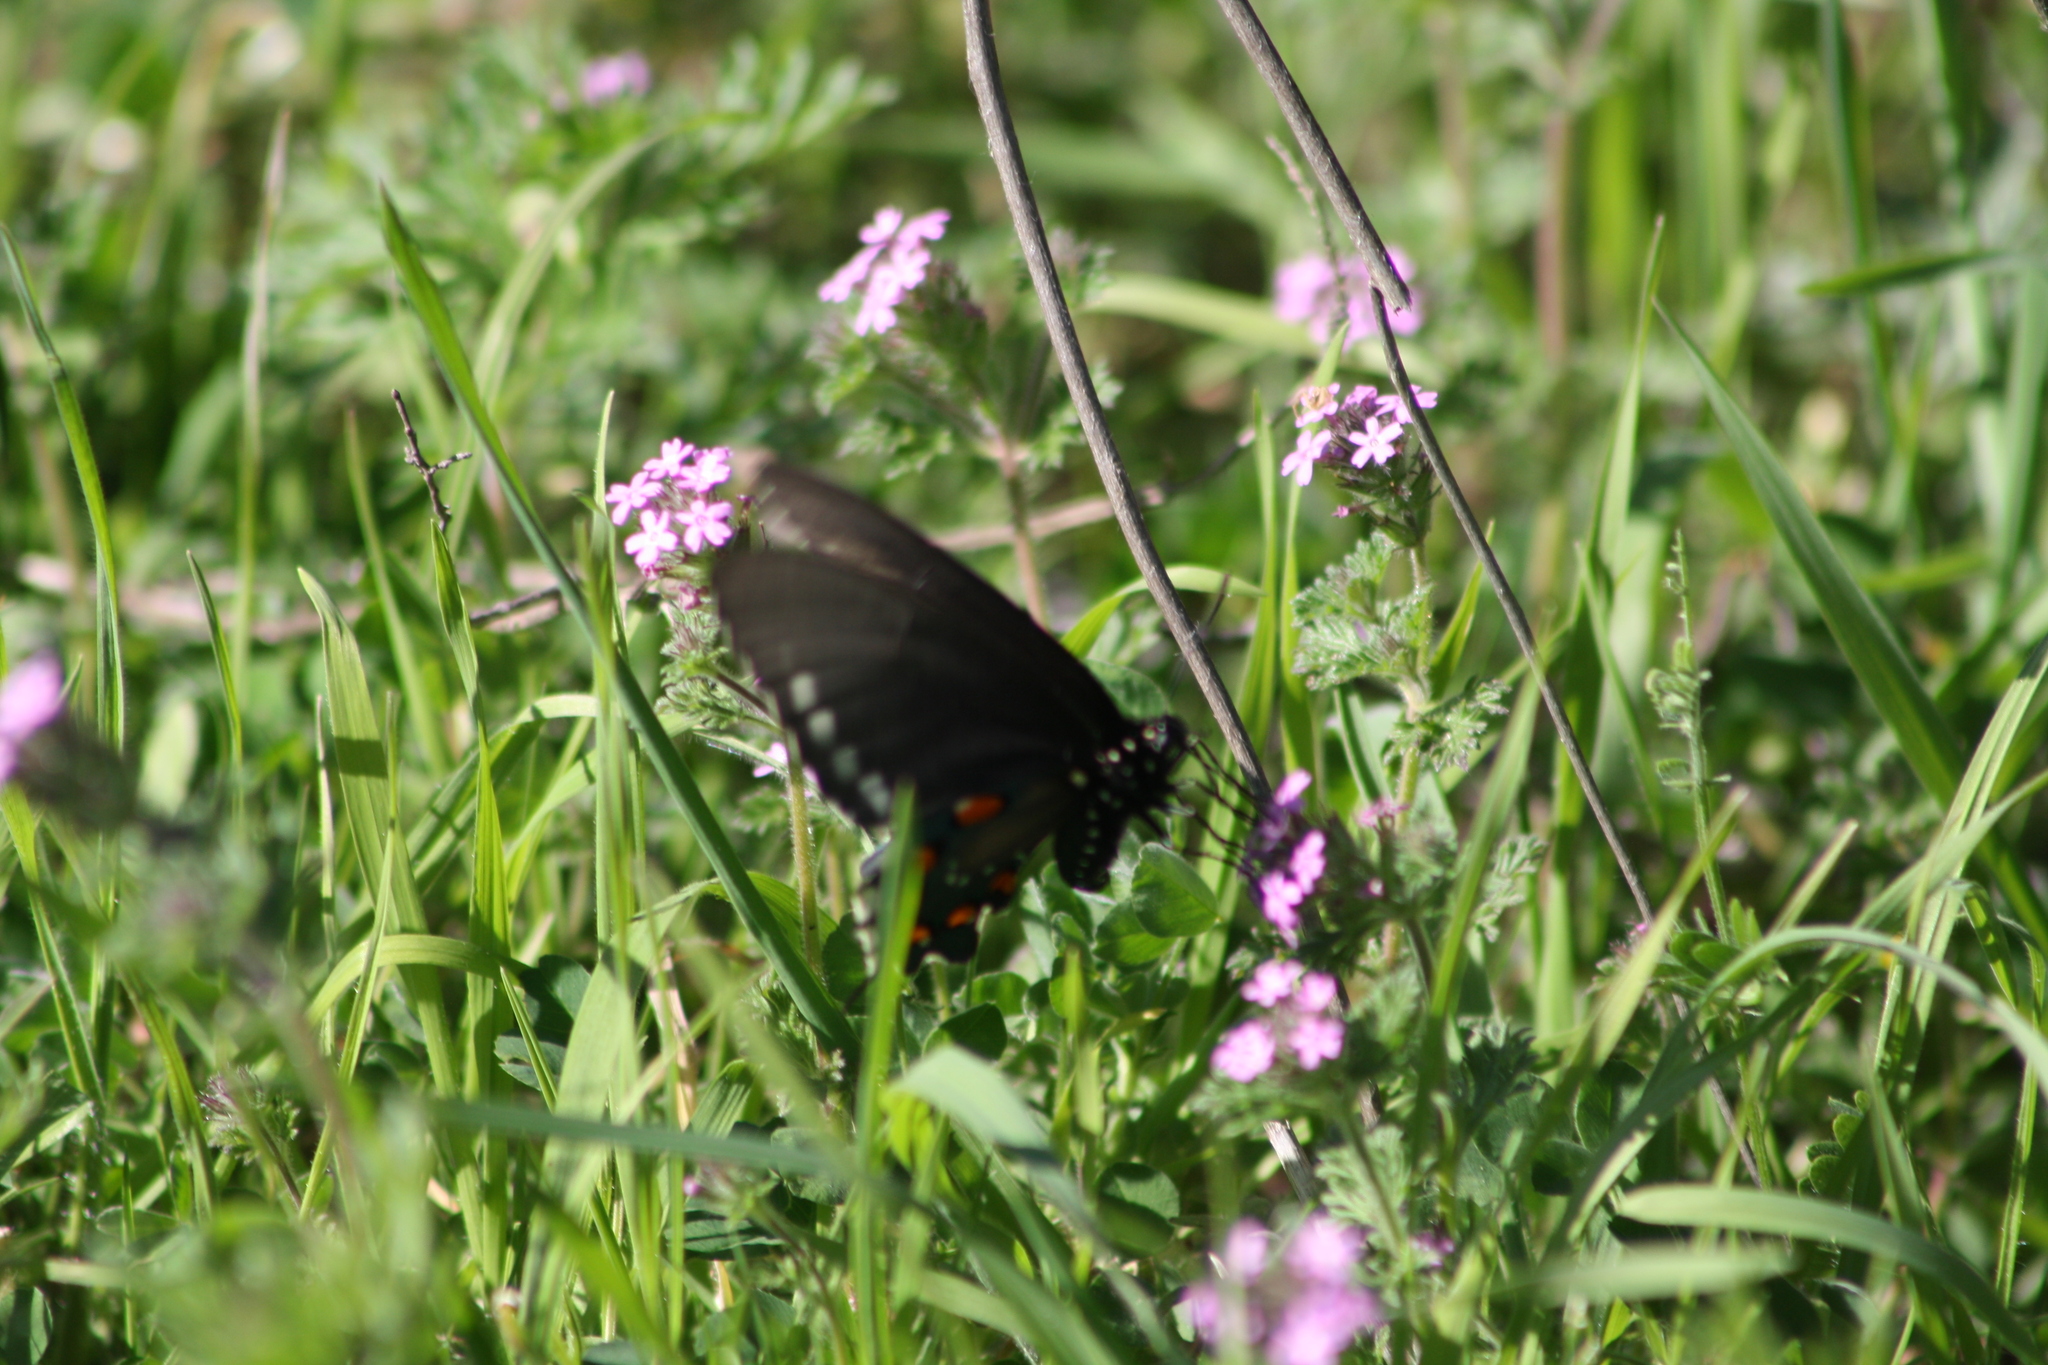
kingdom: Animalia
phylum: Arthropoda
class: Insecta
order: Lepidoptera
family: Papilionidae
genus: Battus
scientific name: Battus philenor
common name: Pipevine swallowtail
